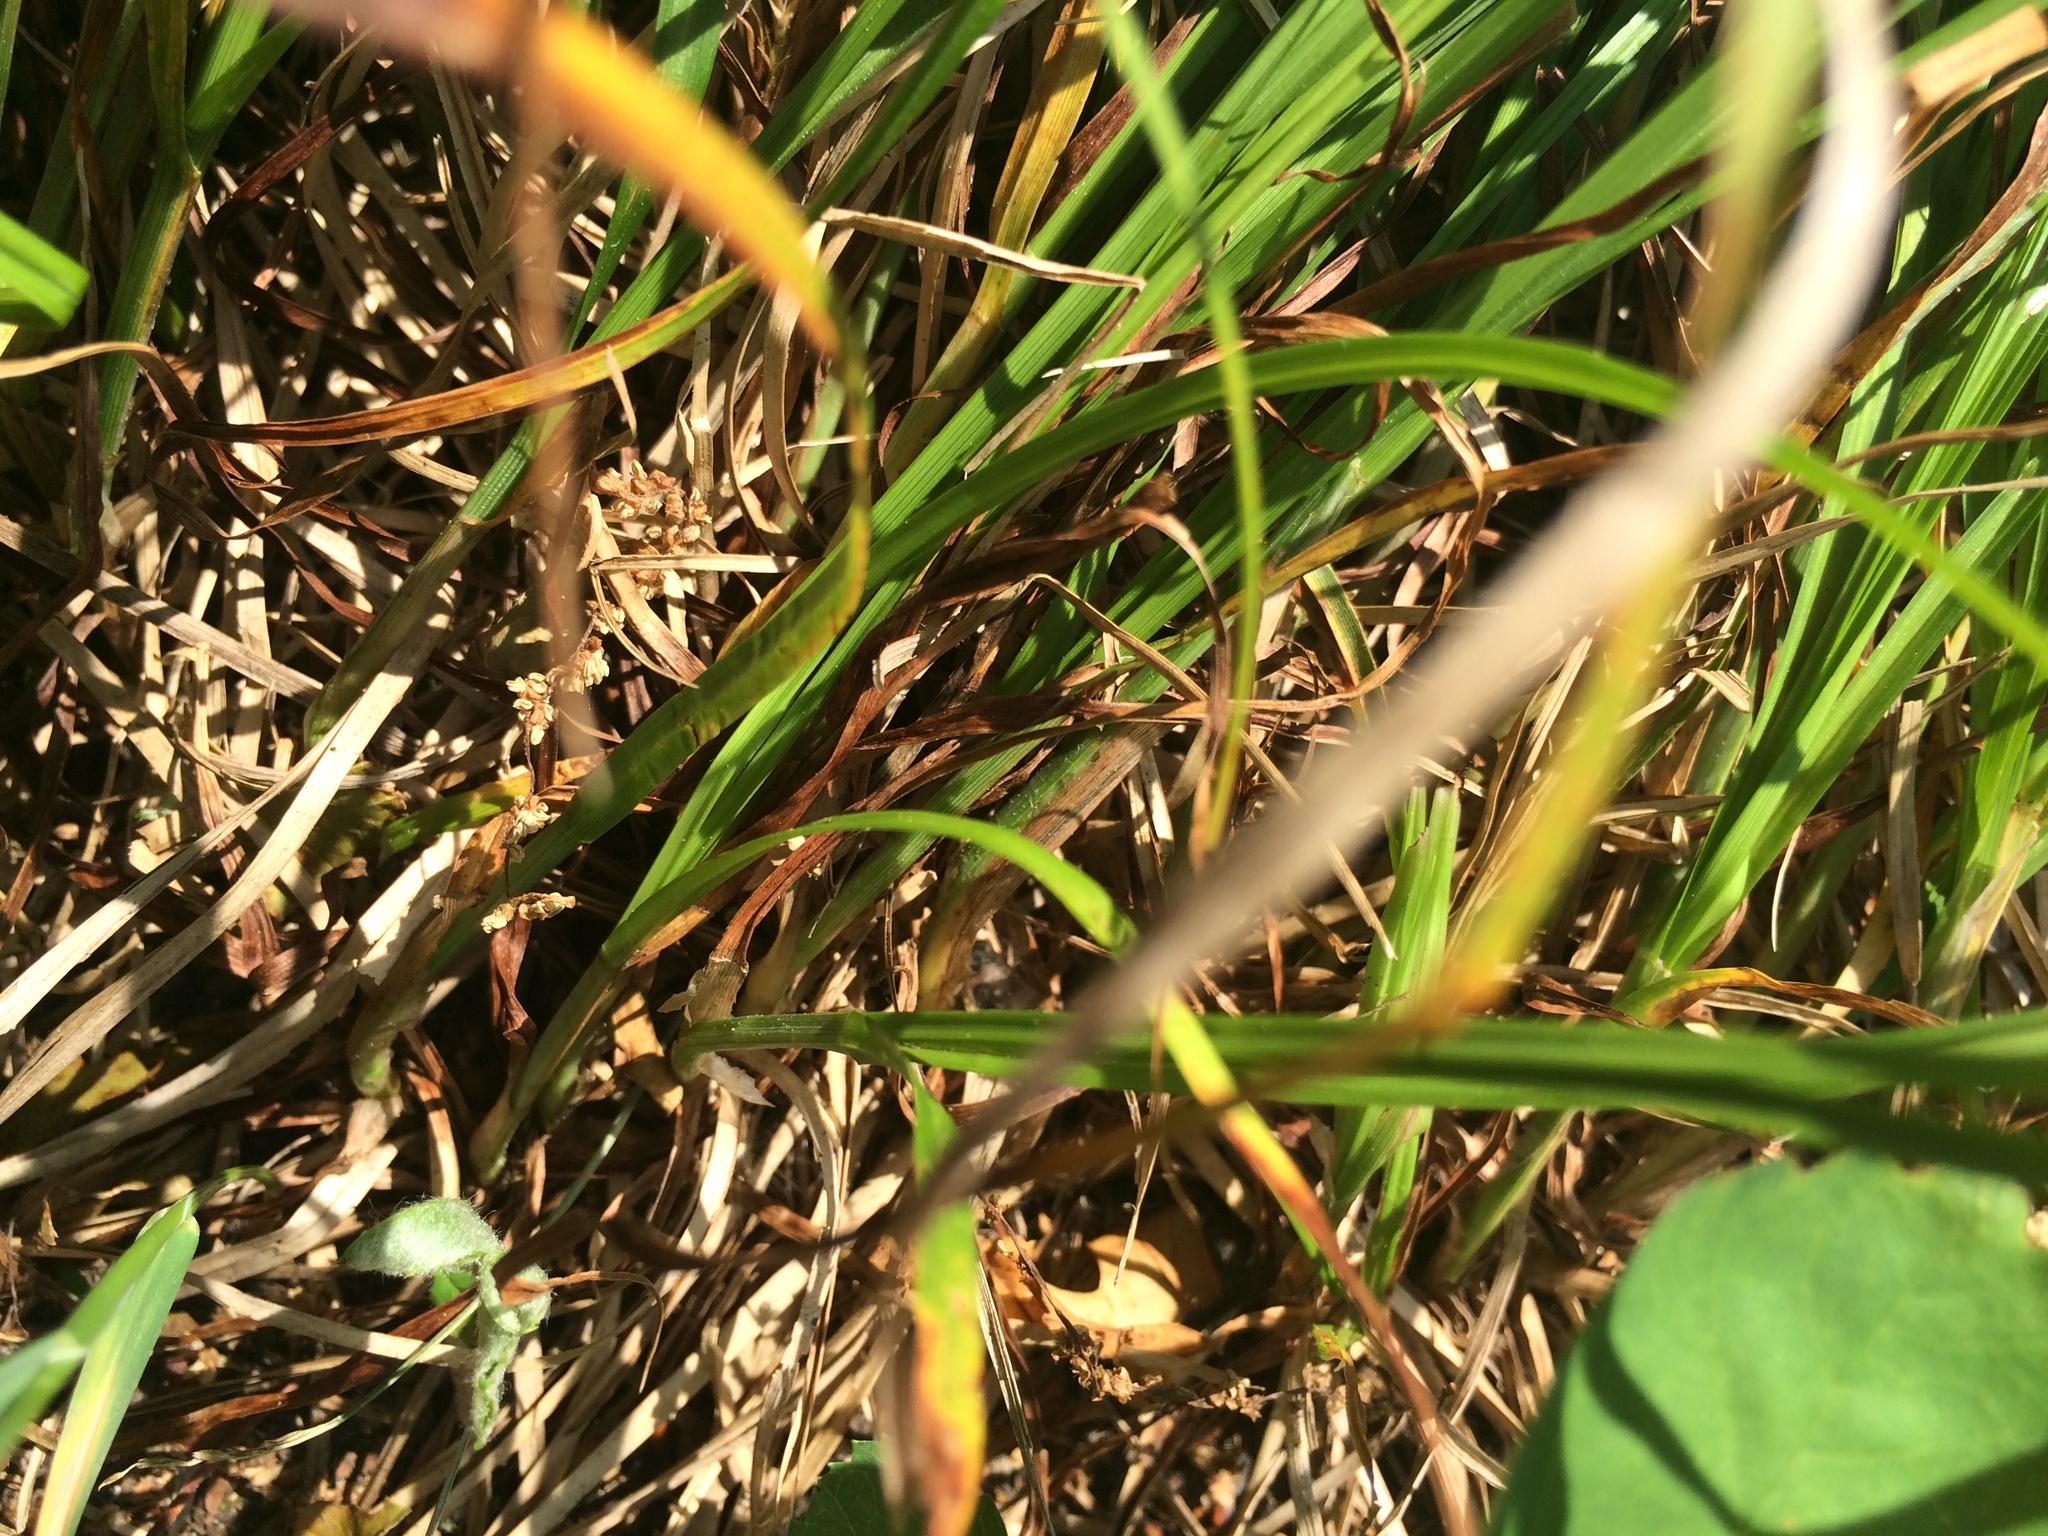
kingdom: Plantae
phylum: Tracheophyta
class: Liliopsida
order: Poales
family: Cyperaceae
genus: Carex
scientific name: Carex sprengelii
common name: Long-beaked sedge
